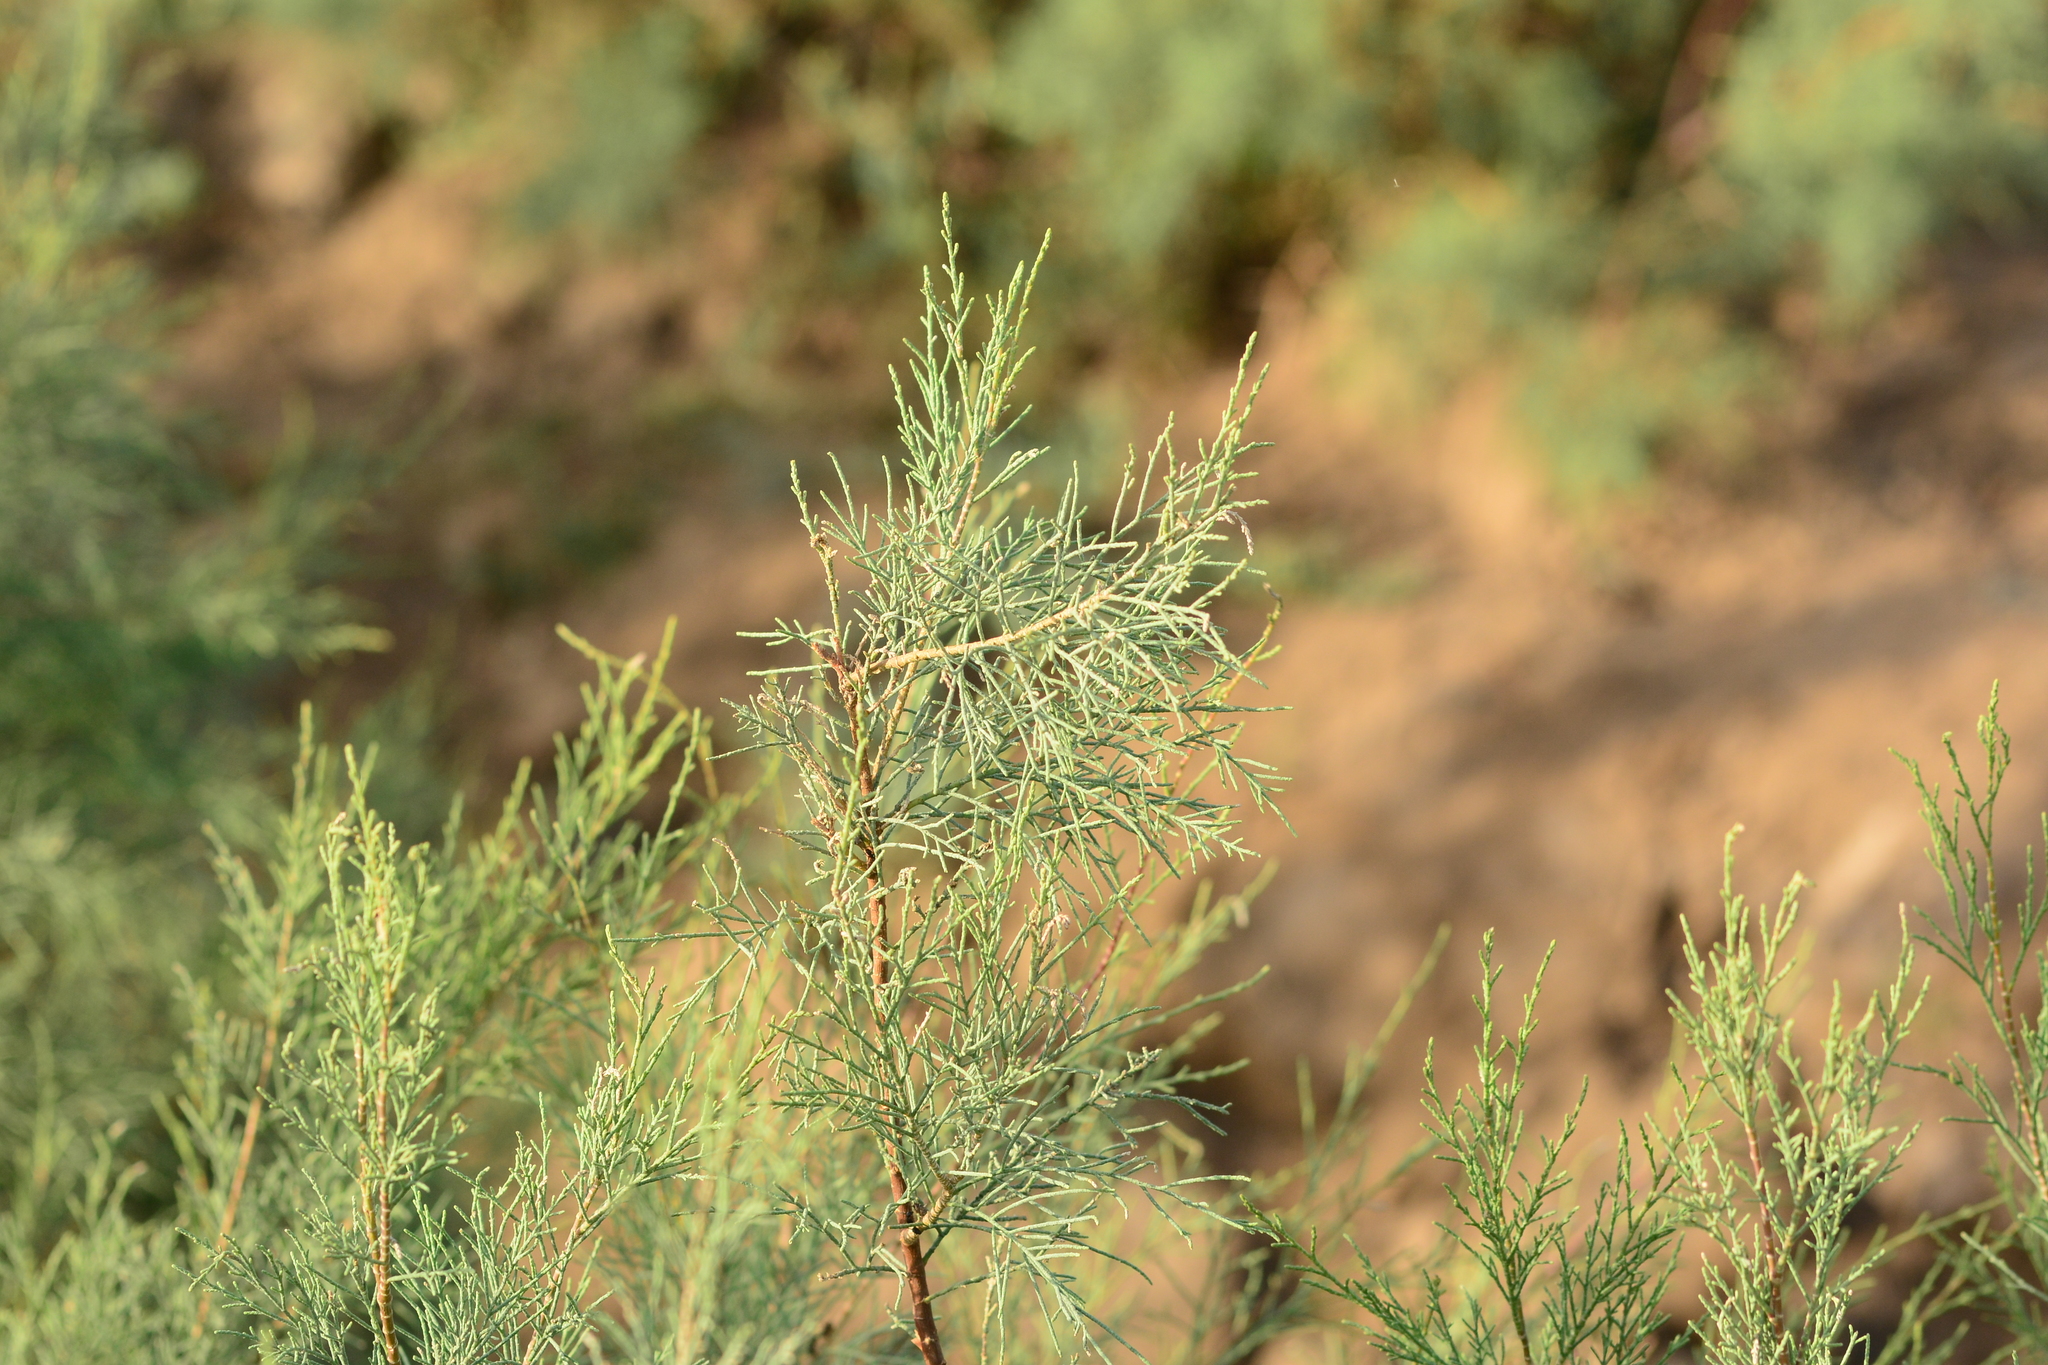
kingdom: Plantae
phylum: Tracheophyta
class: Magnoliopsida
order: Caryophyllales
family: Tamaricaceae
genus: Tamarix
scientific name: Tamarix gallica
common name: Tamarisk
